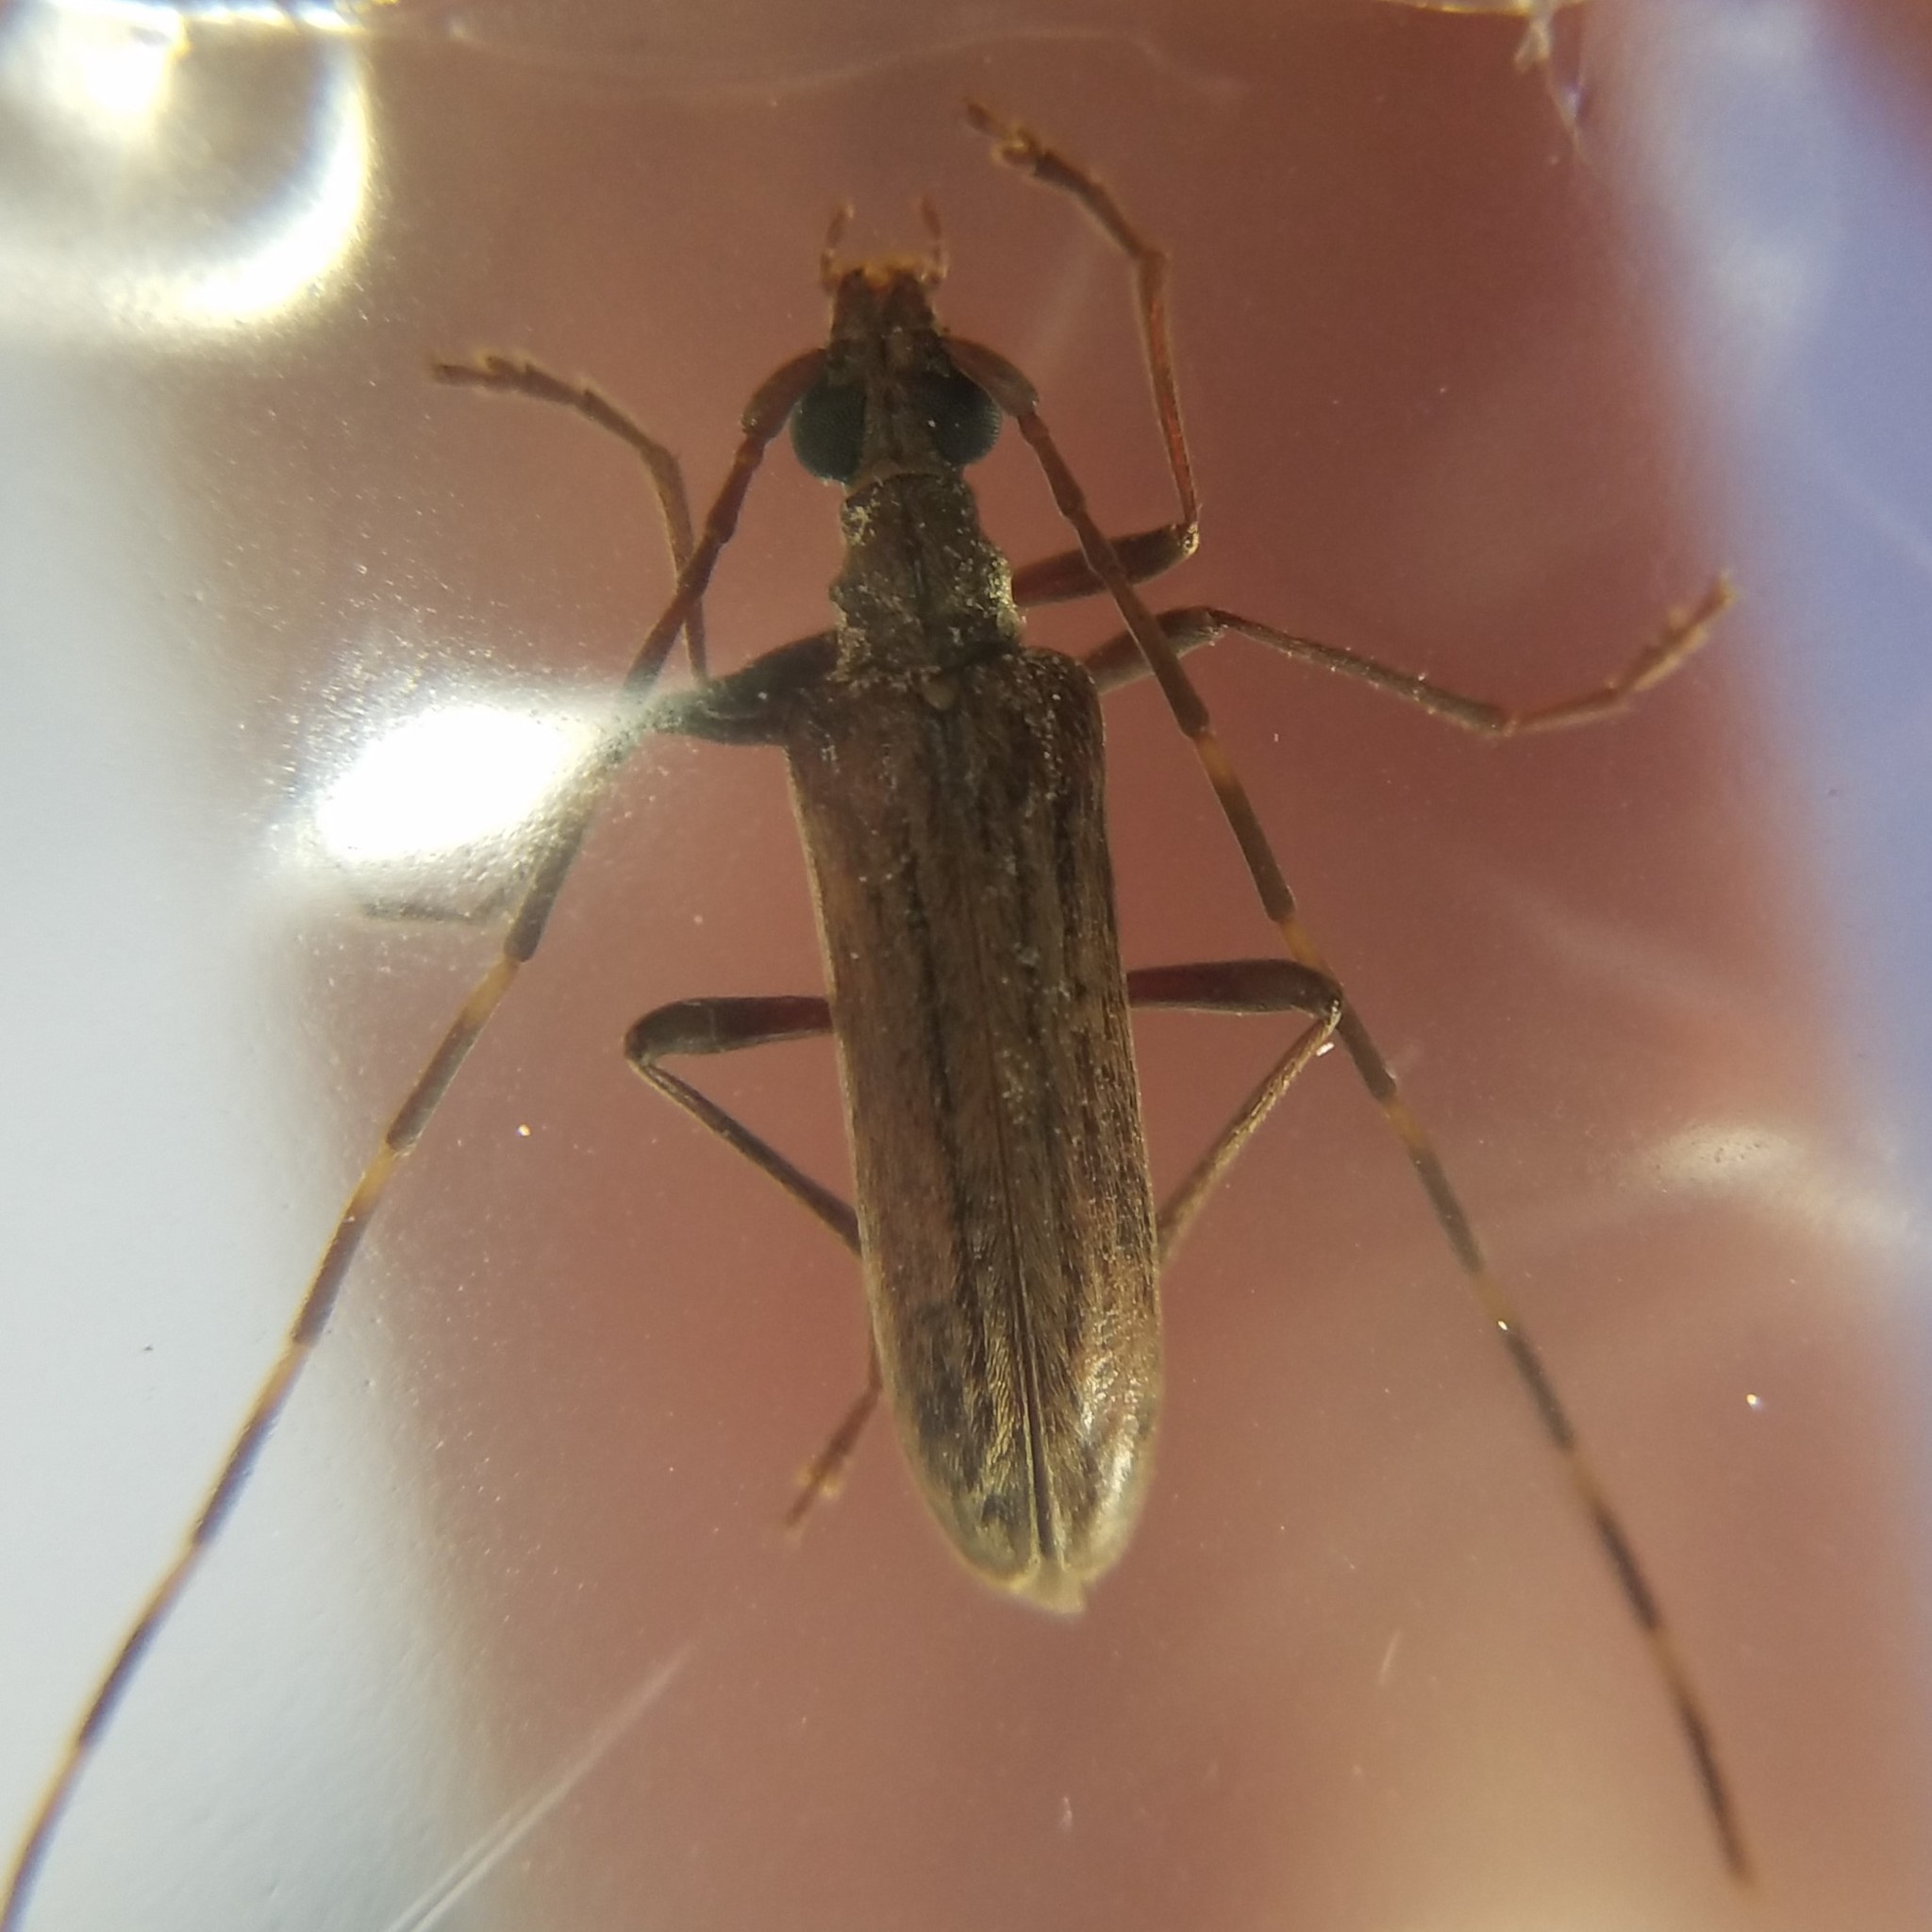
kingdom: Animalia
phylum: Arthropoda
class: Insecta
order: Coleoptera
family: Cerambycidae
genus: Centrodera
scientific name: Centrodera sublineata
